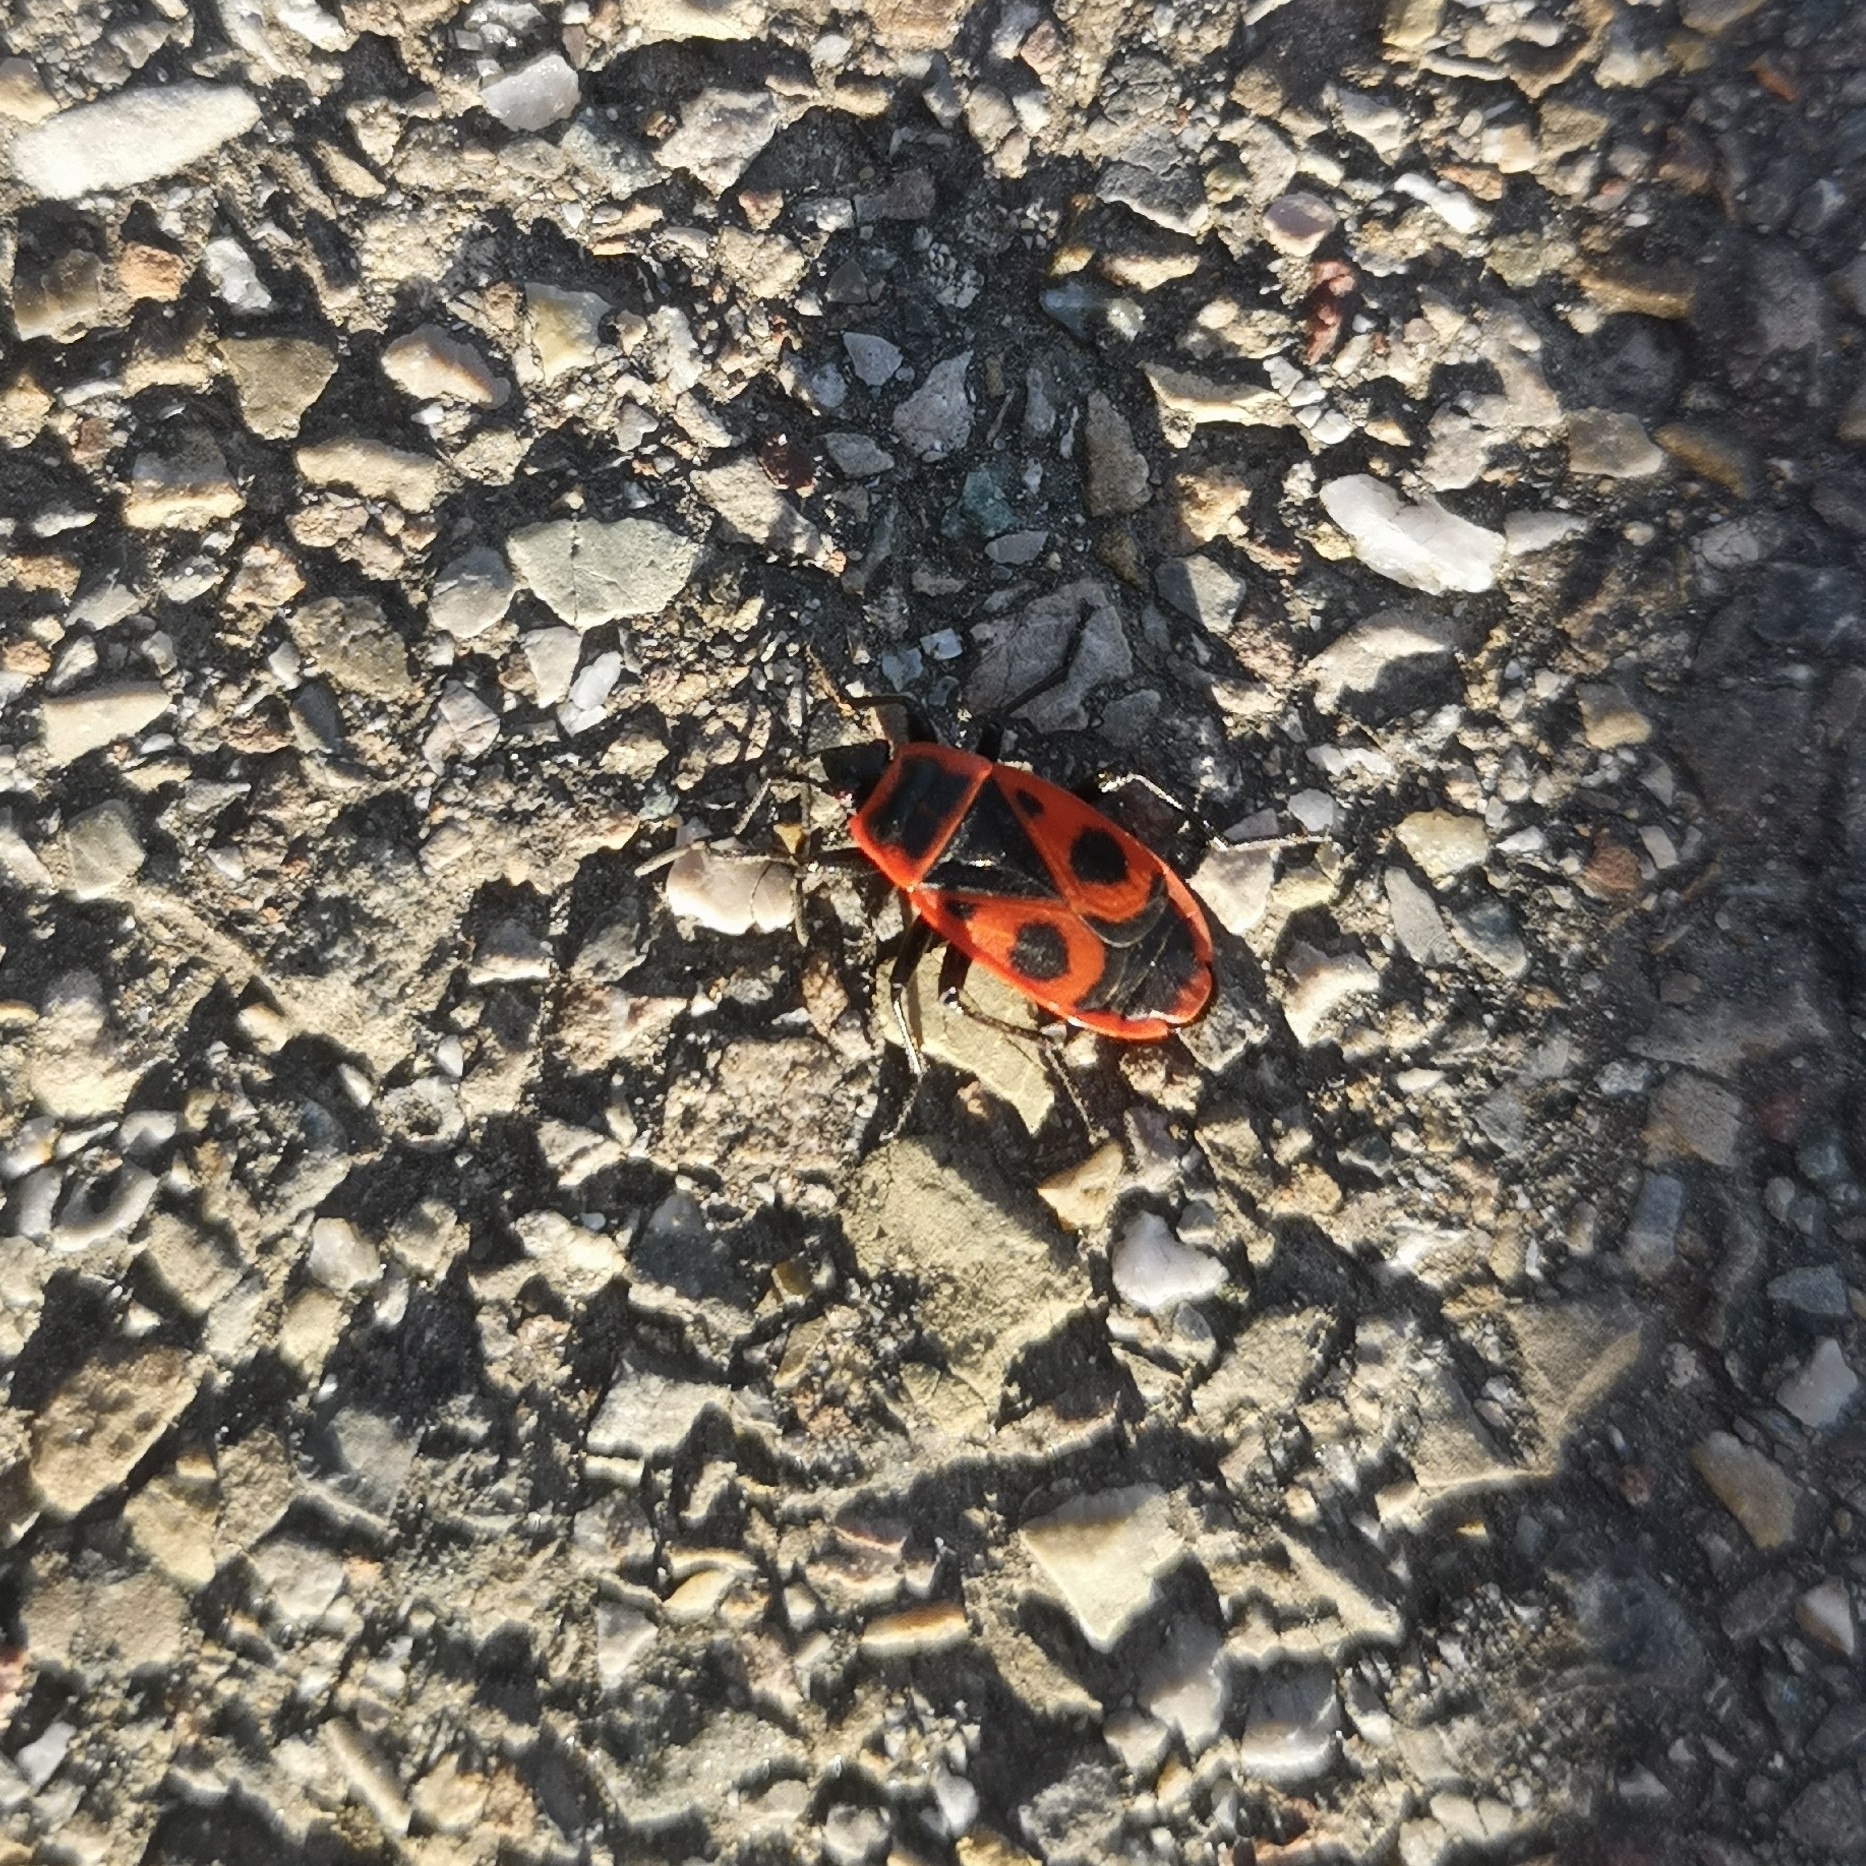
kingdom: Animalia
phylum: Arthropoda
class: Insecta
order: Hemiptera
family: Pyrrhocoridae
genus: Pyrrhocoris
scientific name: Pyrrhocoris apterus
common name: Firebug
